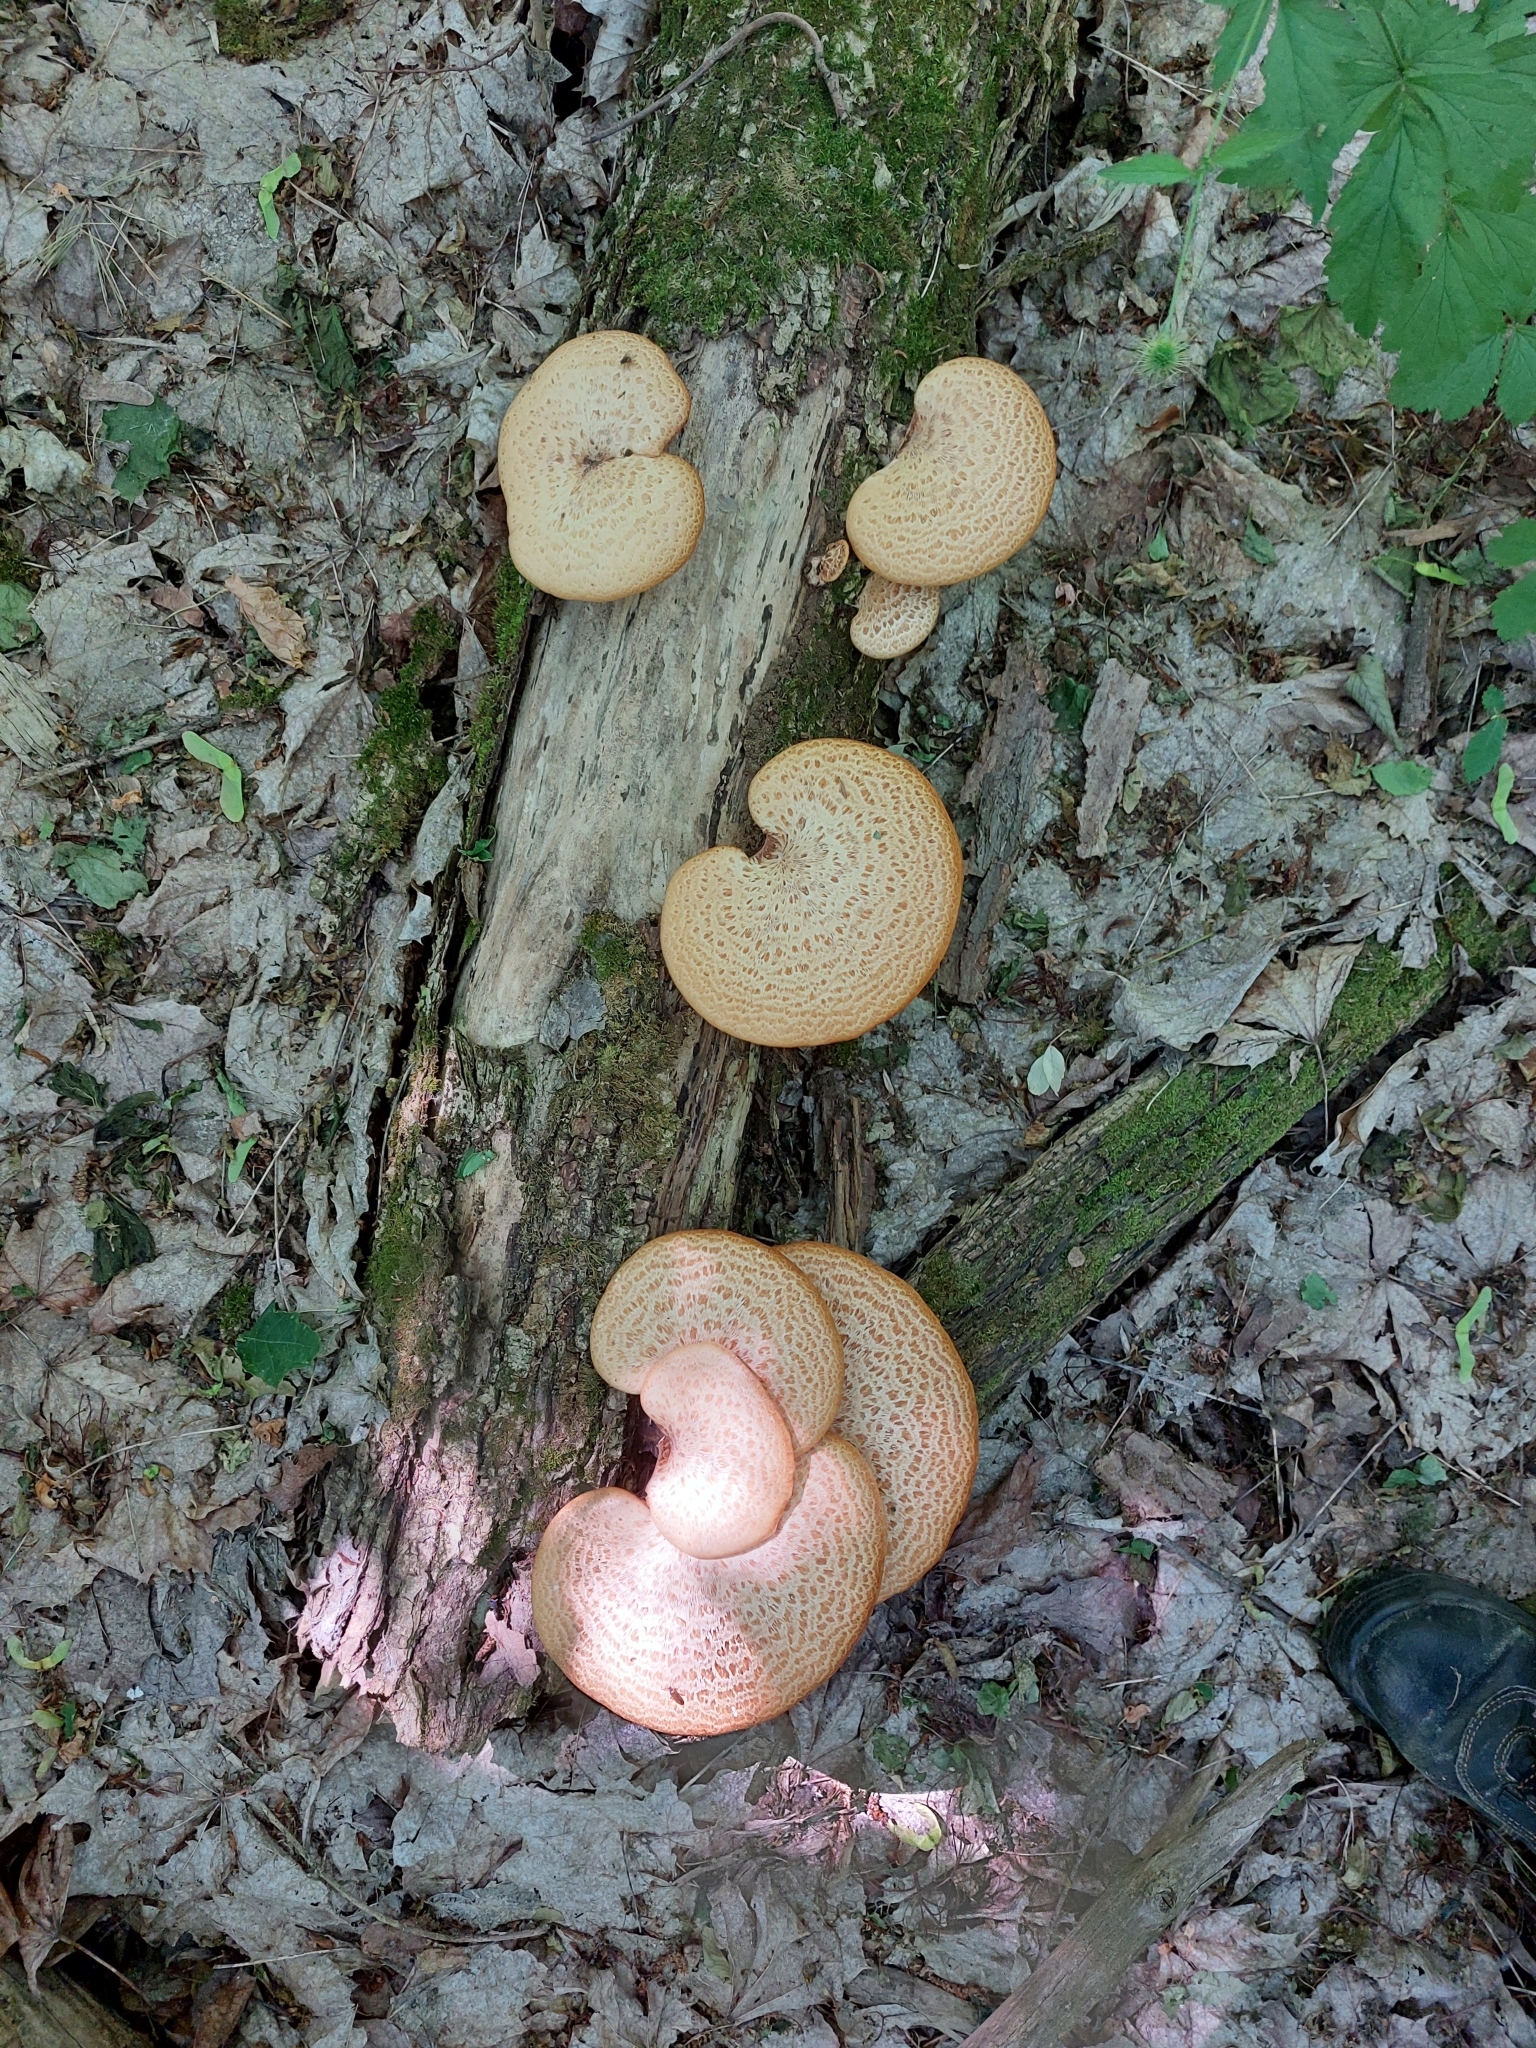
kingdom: Fungi
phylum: Basidiomycota
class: Agaricomycetes
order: Polyporales
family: Polyporaceae
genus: Cerioporus
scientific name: Cerioporus squamosus
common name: Dryad's saddle
